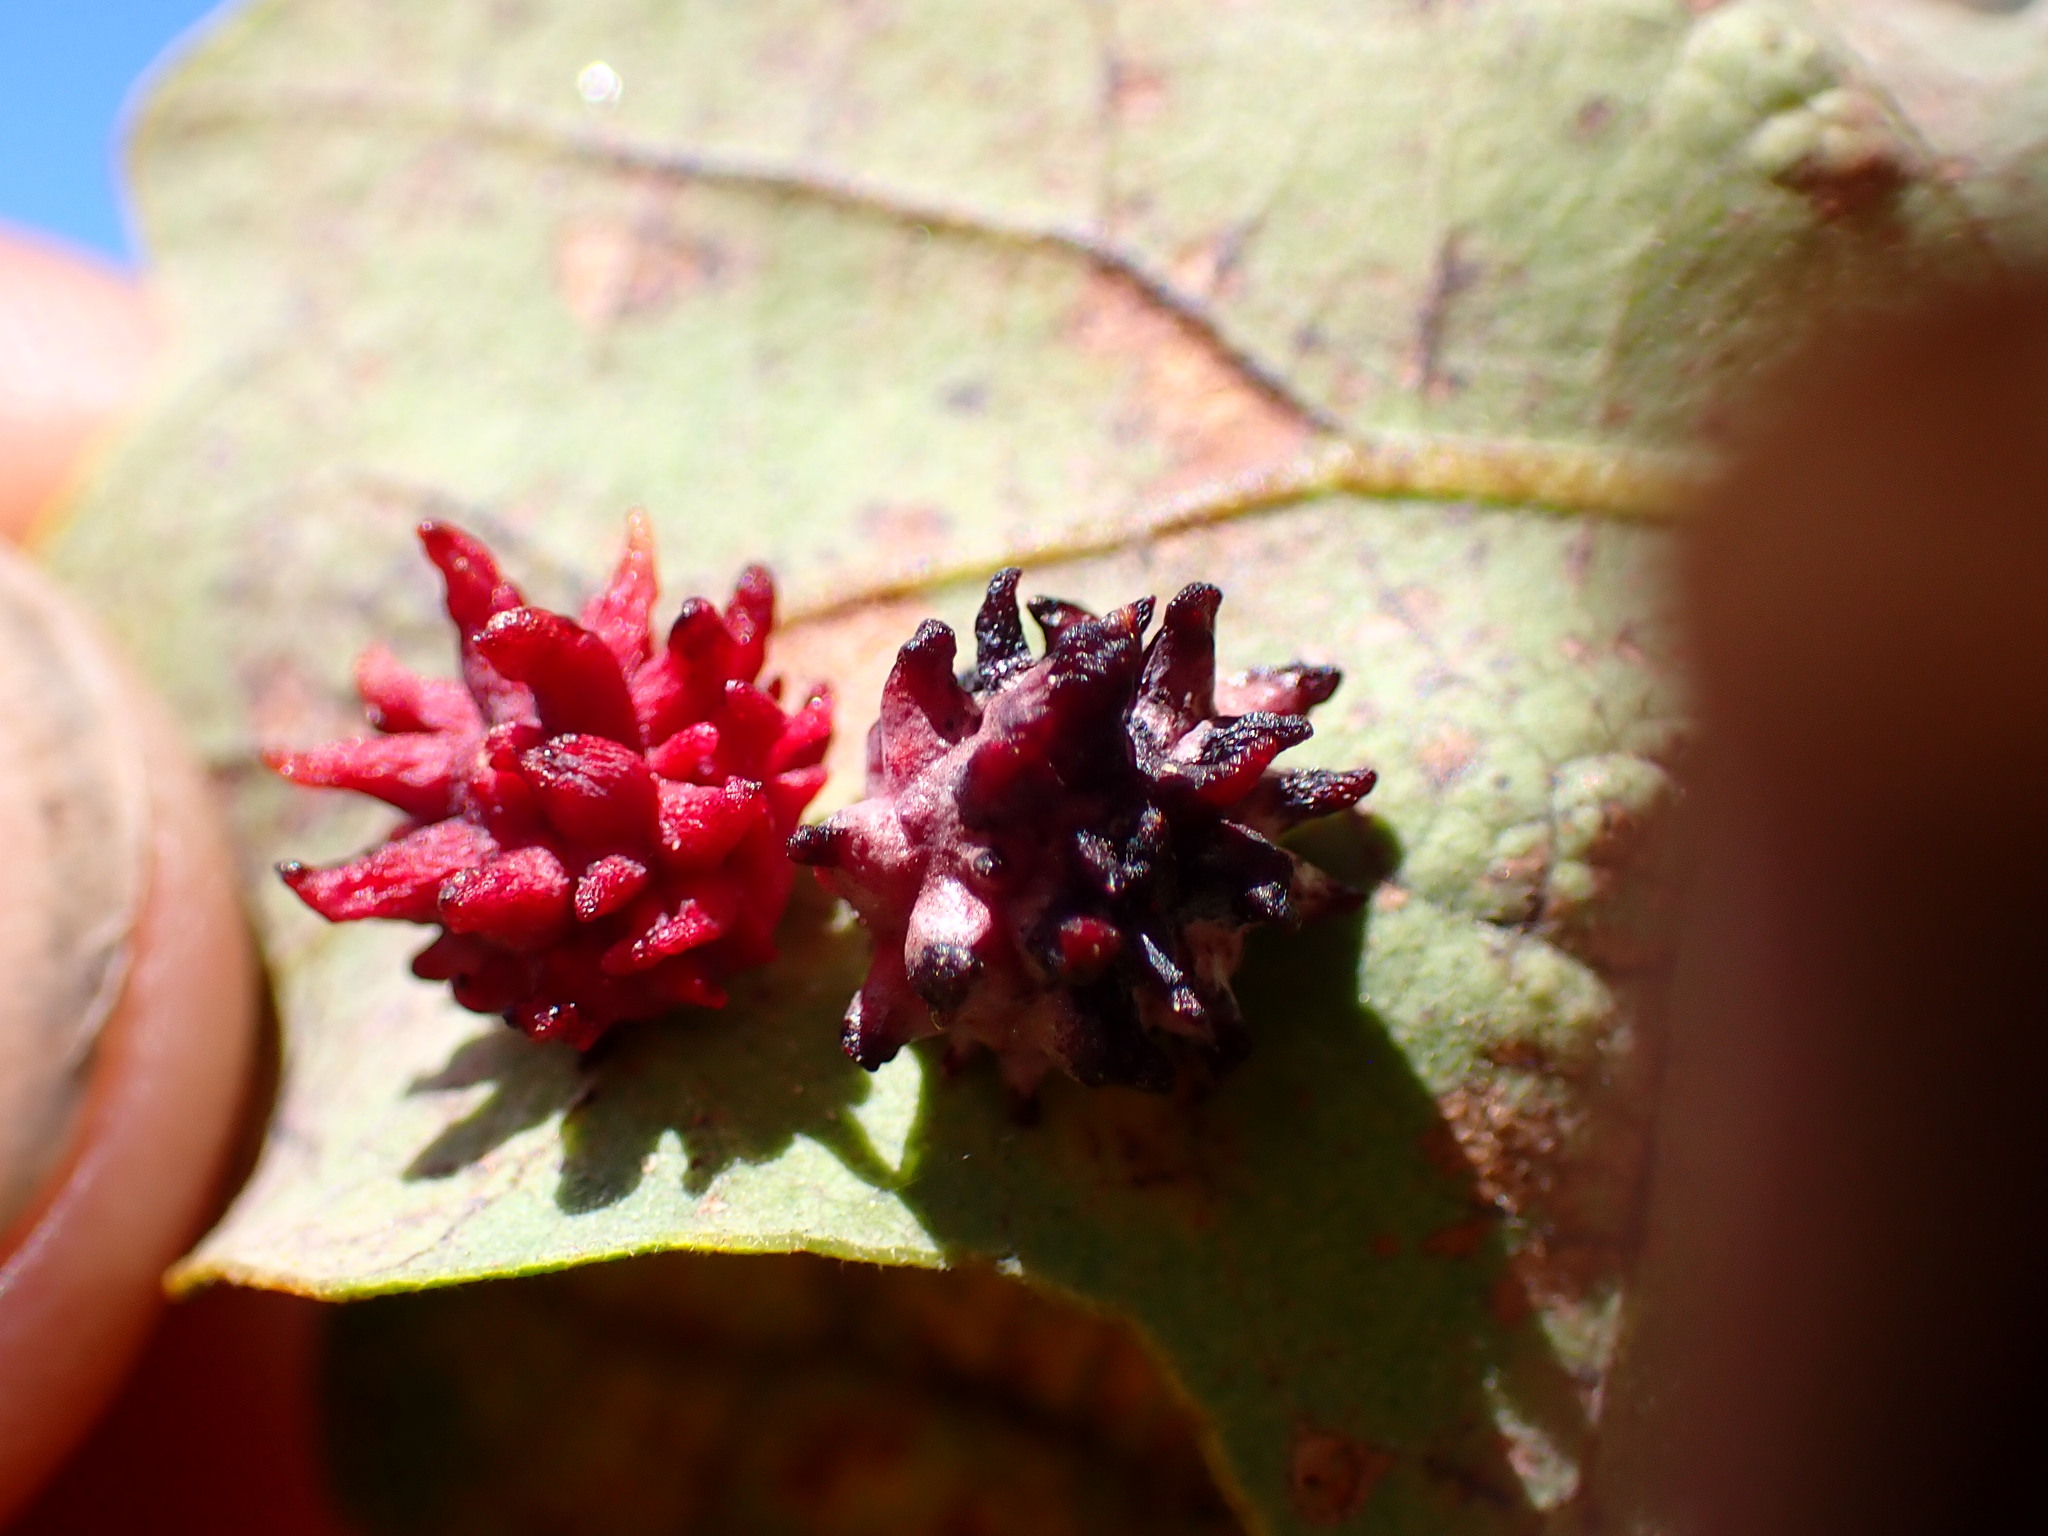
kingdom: Animalia
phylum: Arthropoda
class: Insecta
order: Hymenoptera
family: Cynipidae
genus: Cynips
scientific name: Cynips
